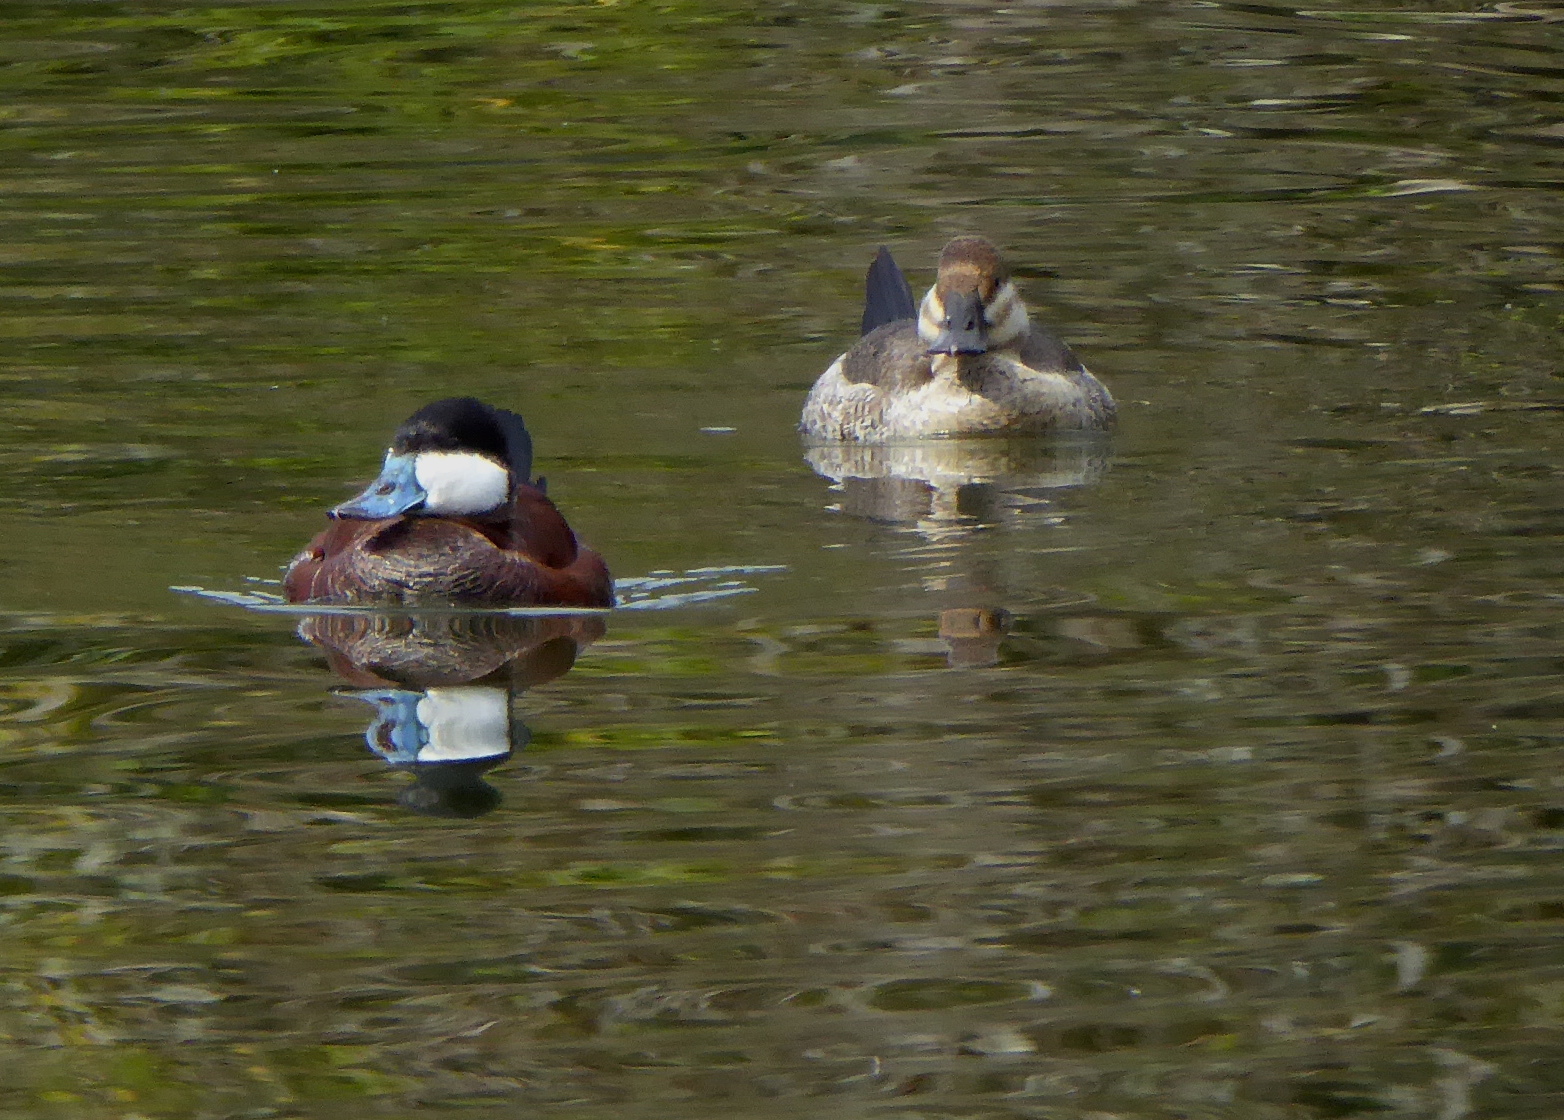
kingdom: Animalia
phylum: Chordata
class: Aves
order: Anseriformes
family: Anatidae
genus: Oxyura
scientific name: Oxyura jamaicensis
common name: Ruddy duck
